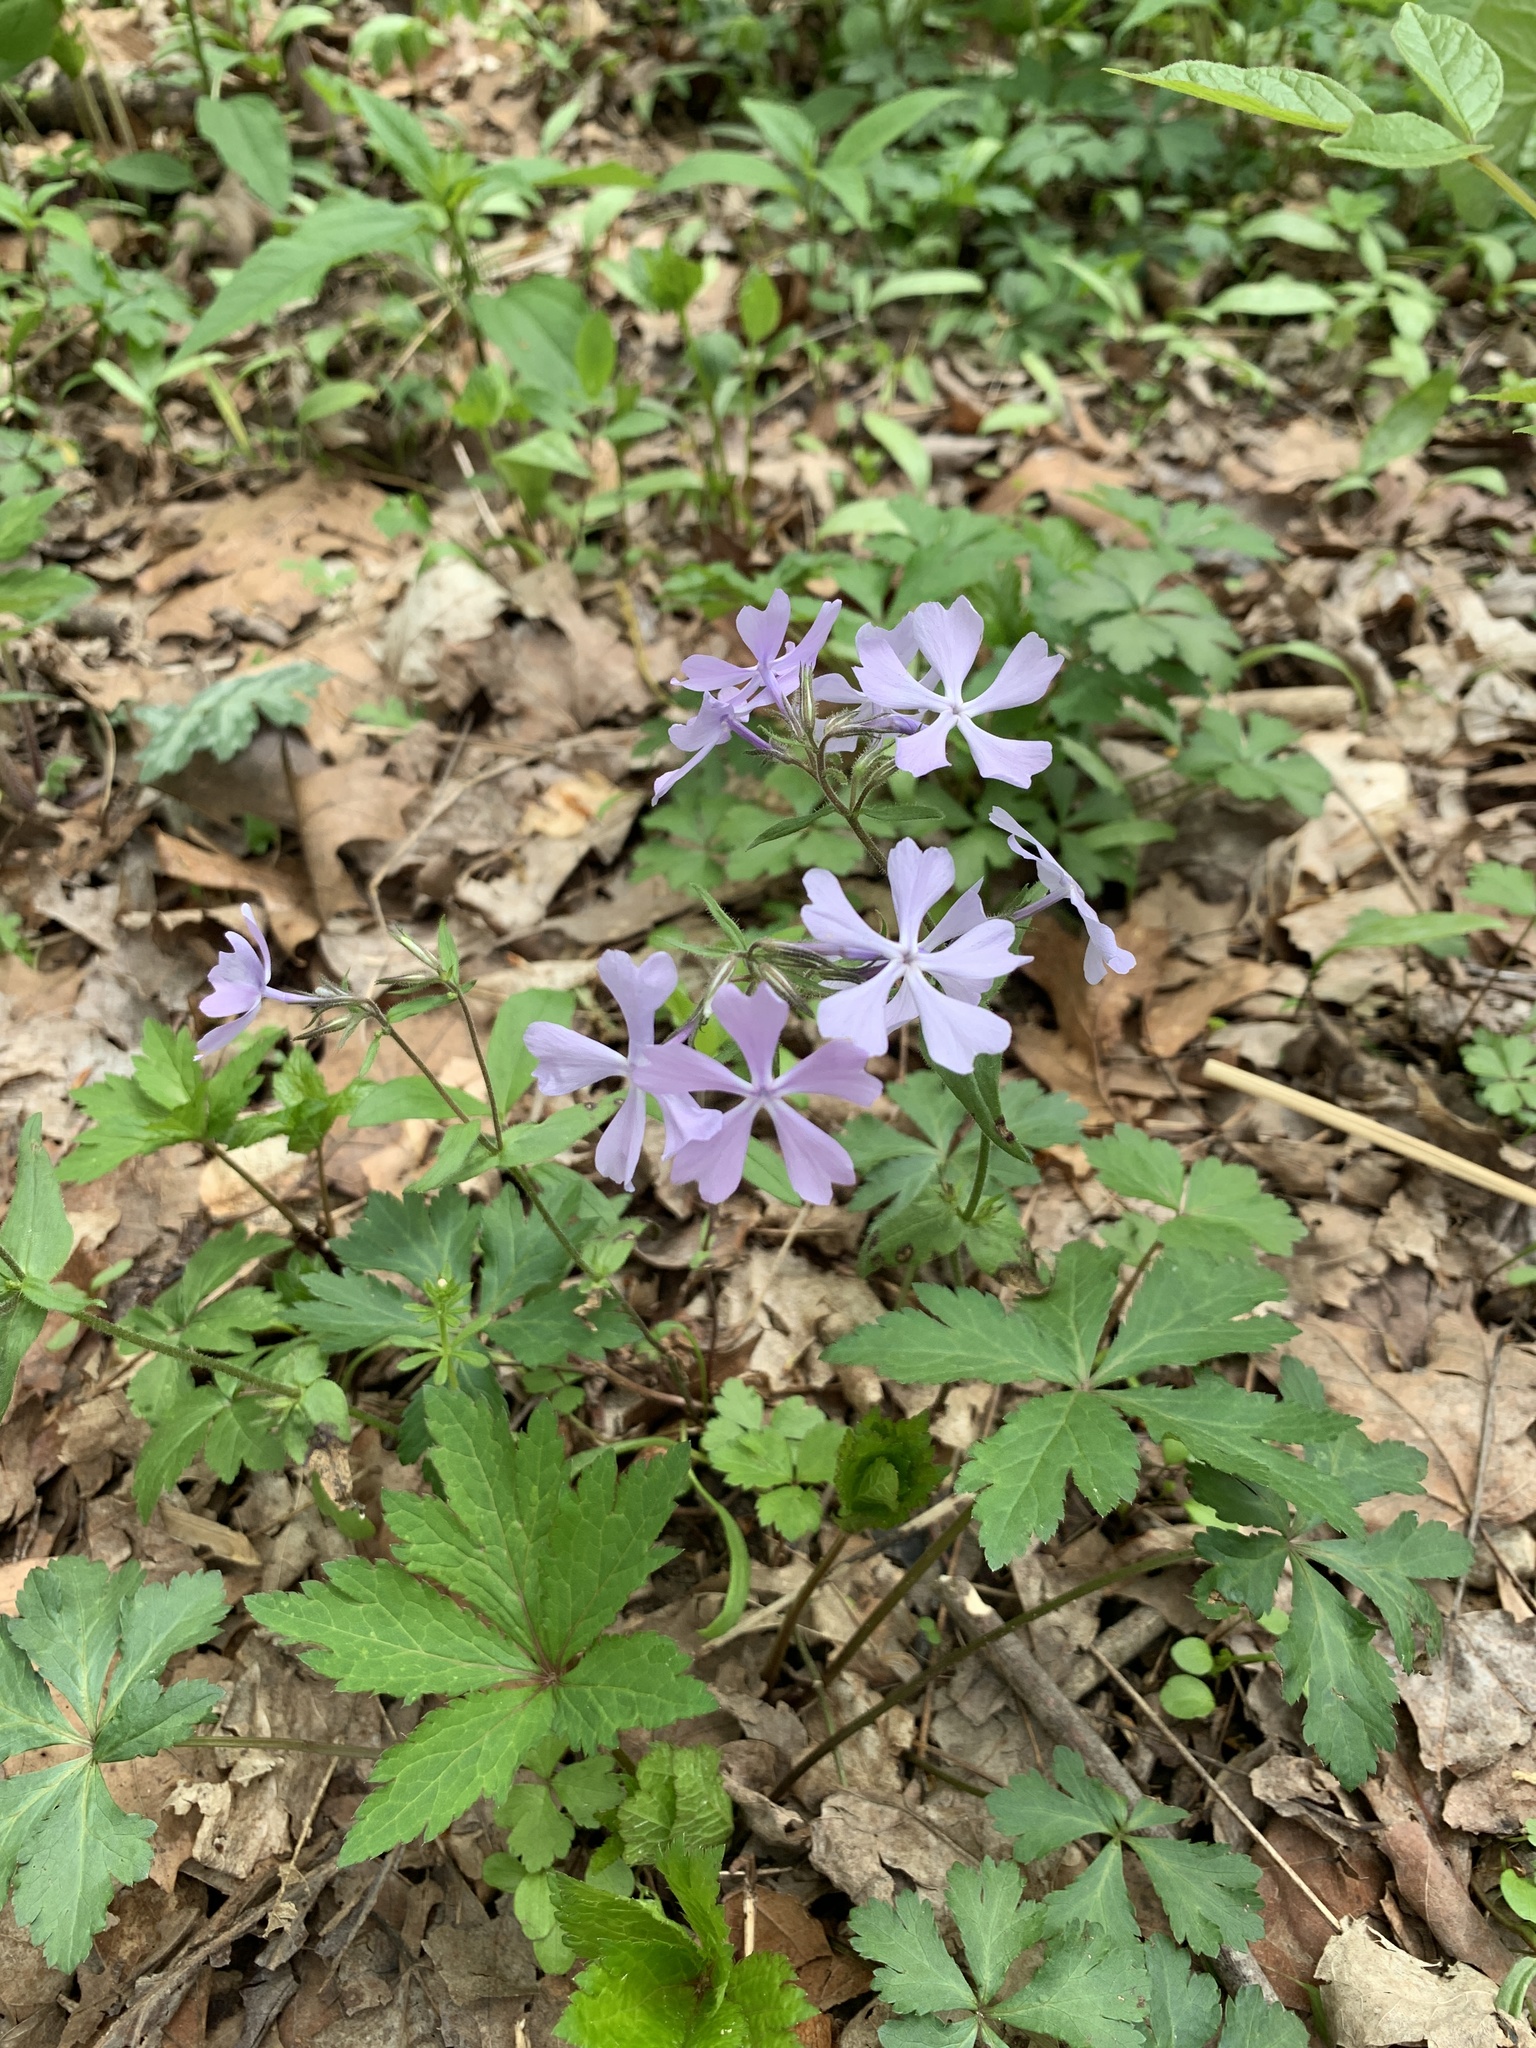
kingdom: Plantae
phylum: Tracheophyta
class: Magnoliopsida
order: Ericales
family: Polemoniaceae
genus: Phlox
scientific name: Phlox divaricata
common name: Blue phlox
